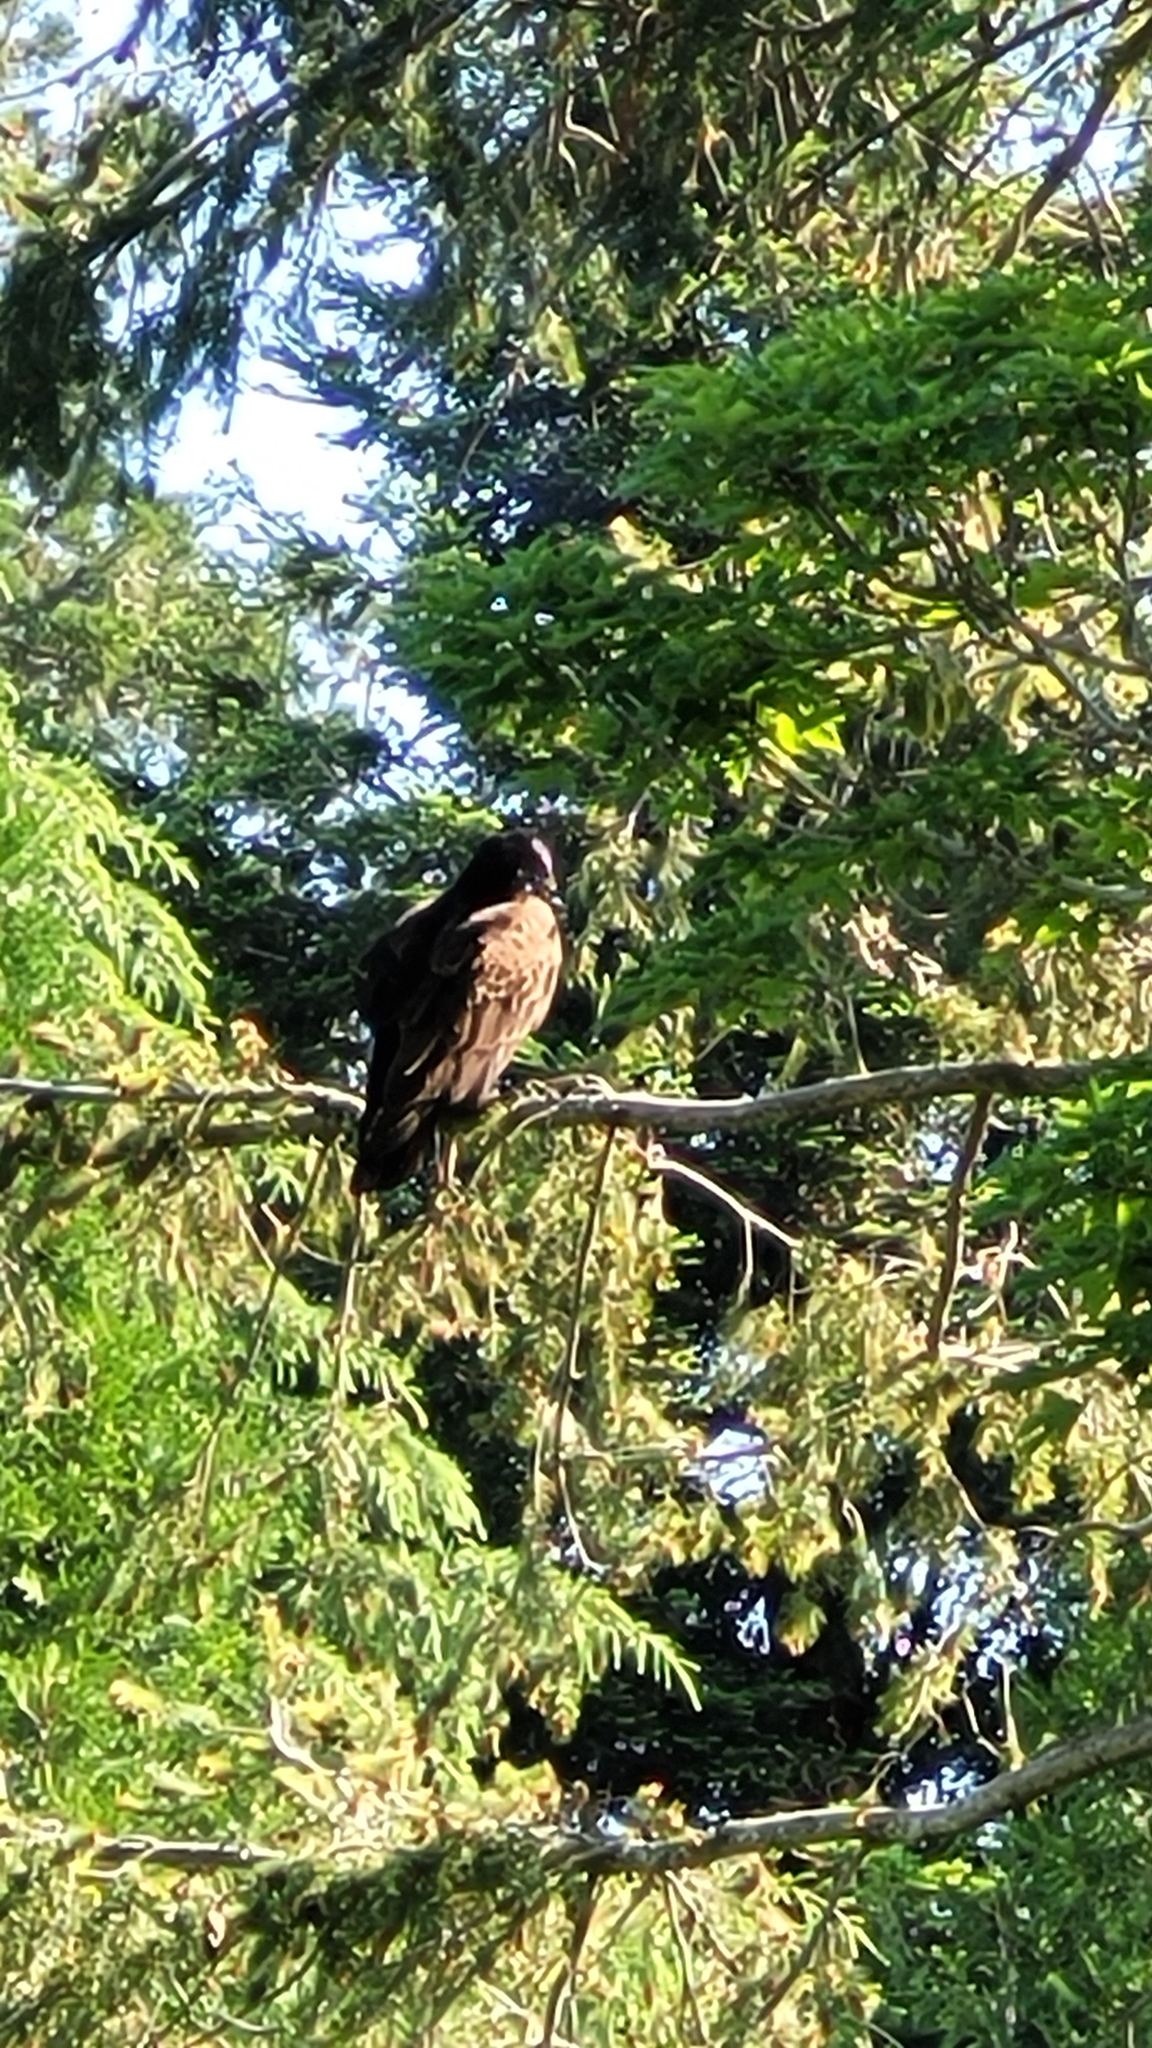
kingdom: Animalia
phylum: Chordata
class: Aves
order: Accipitriformes
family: Cathartidae
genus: Cathartes
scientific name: Cathartes aura
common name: Turkey vulture
